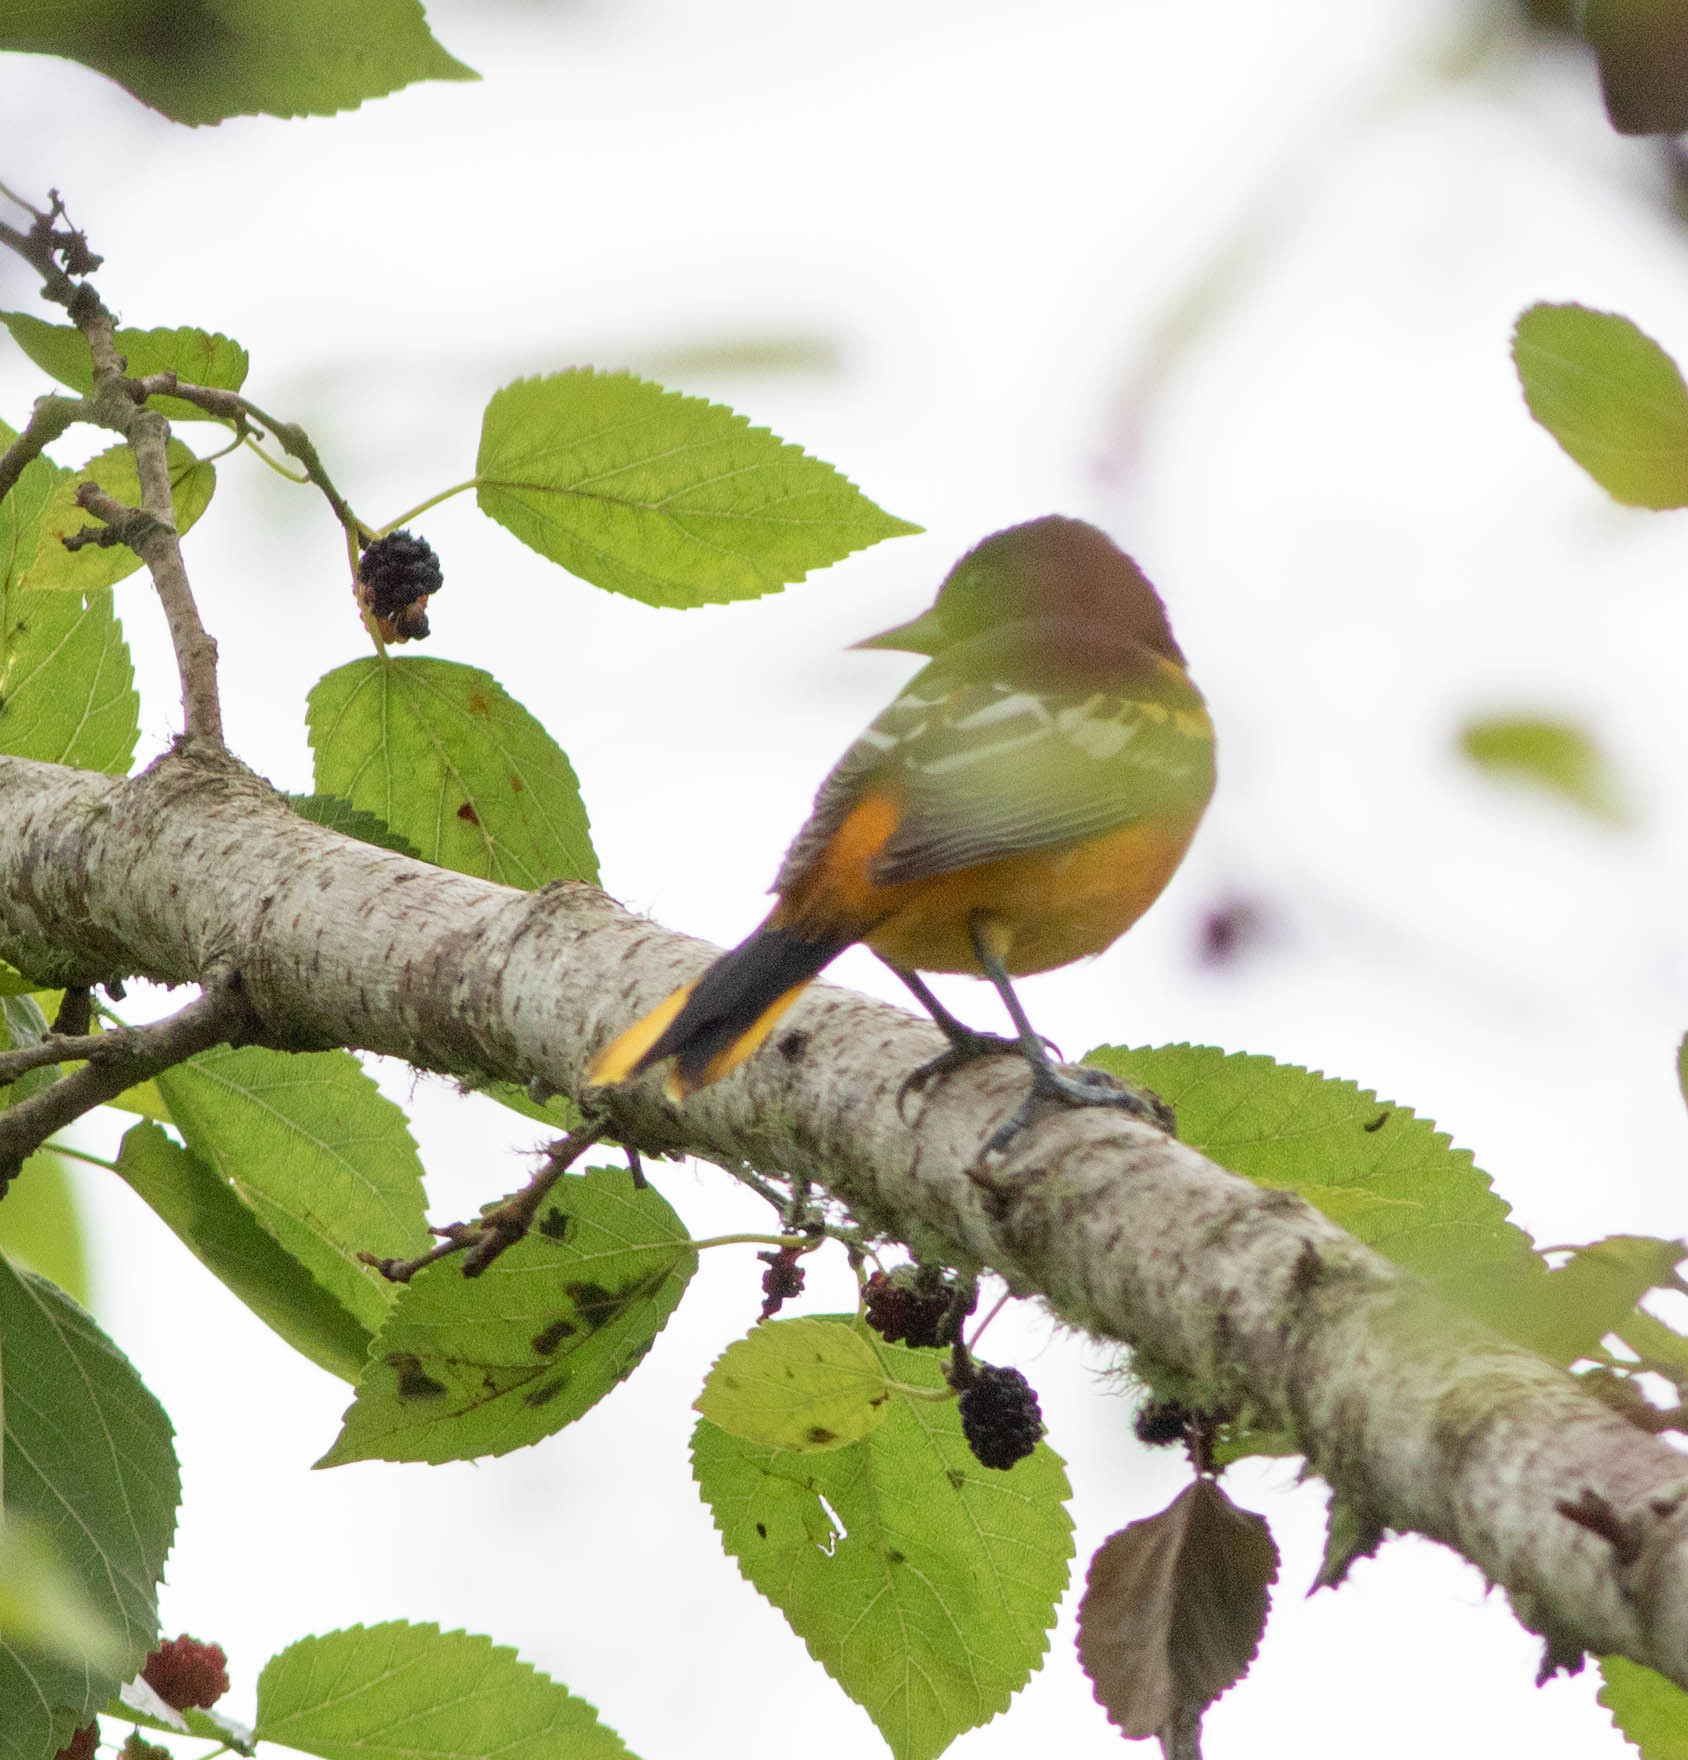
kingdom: Animalia
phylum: Chordata
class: Aves
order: Passeriformes
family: Icteridae
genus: Icterus
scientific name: Icterus galbula
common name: Baltimore oriole
